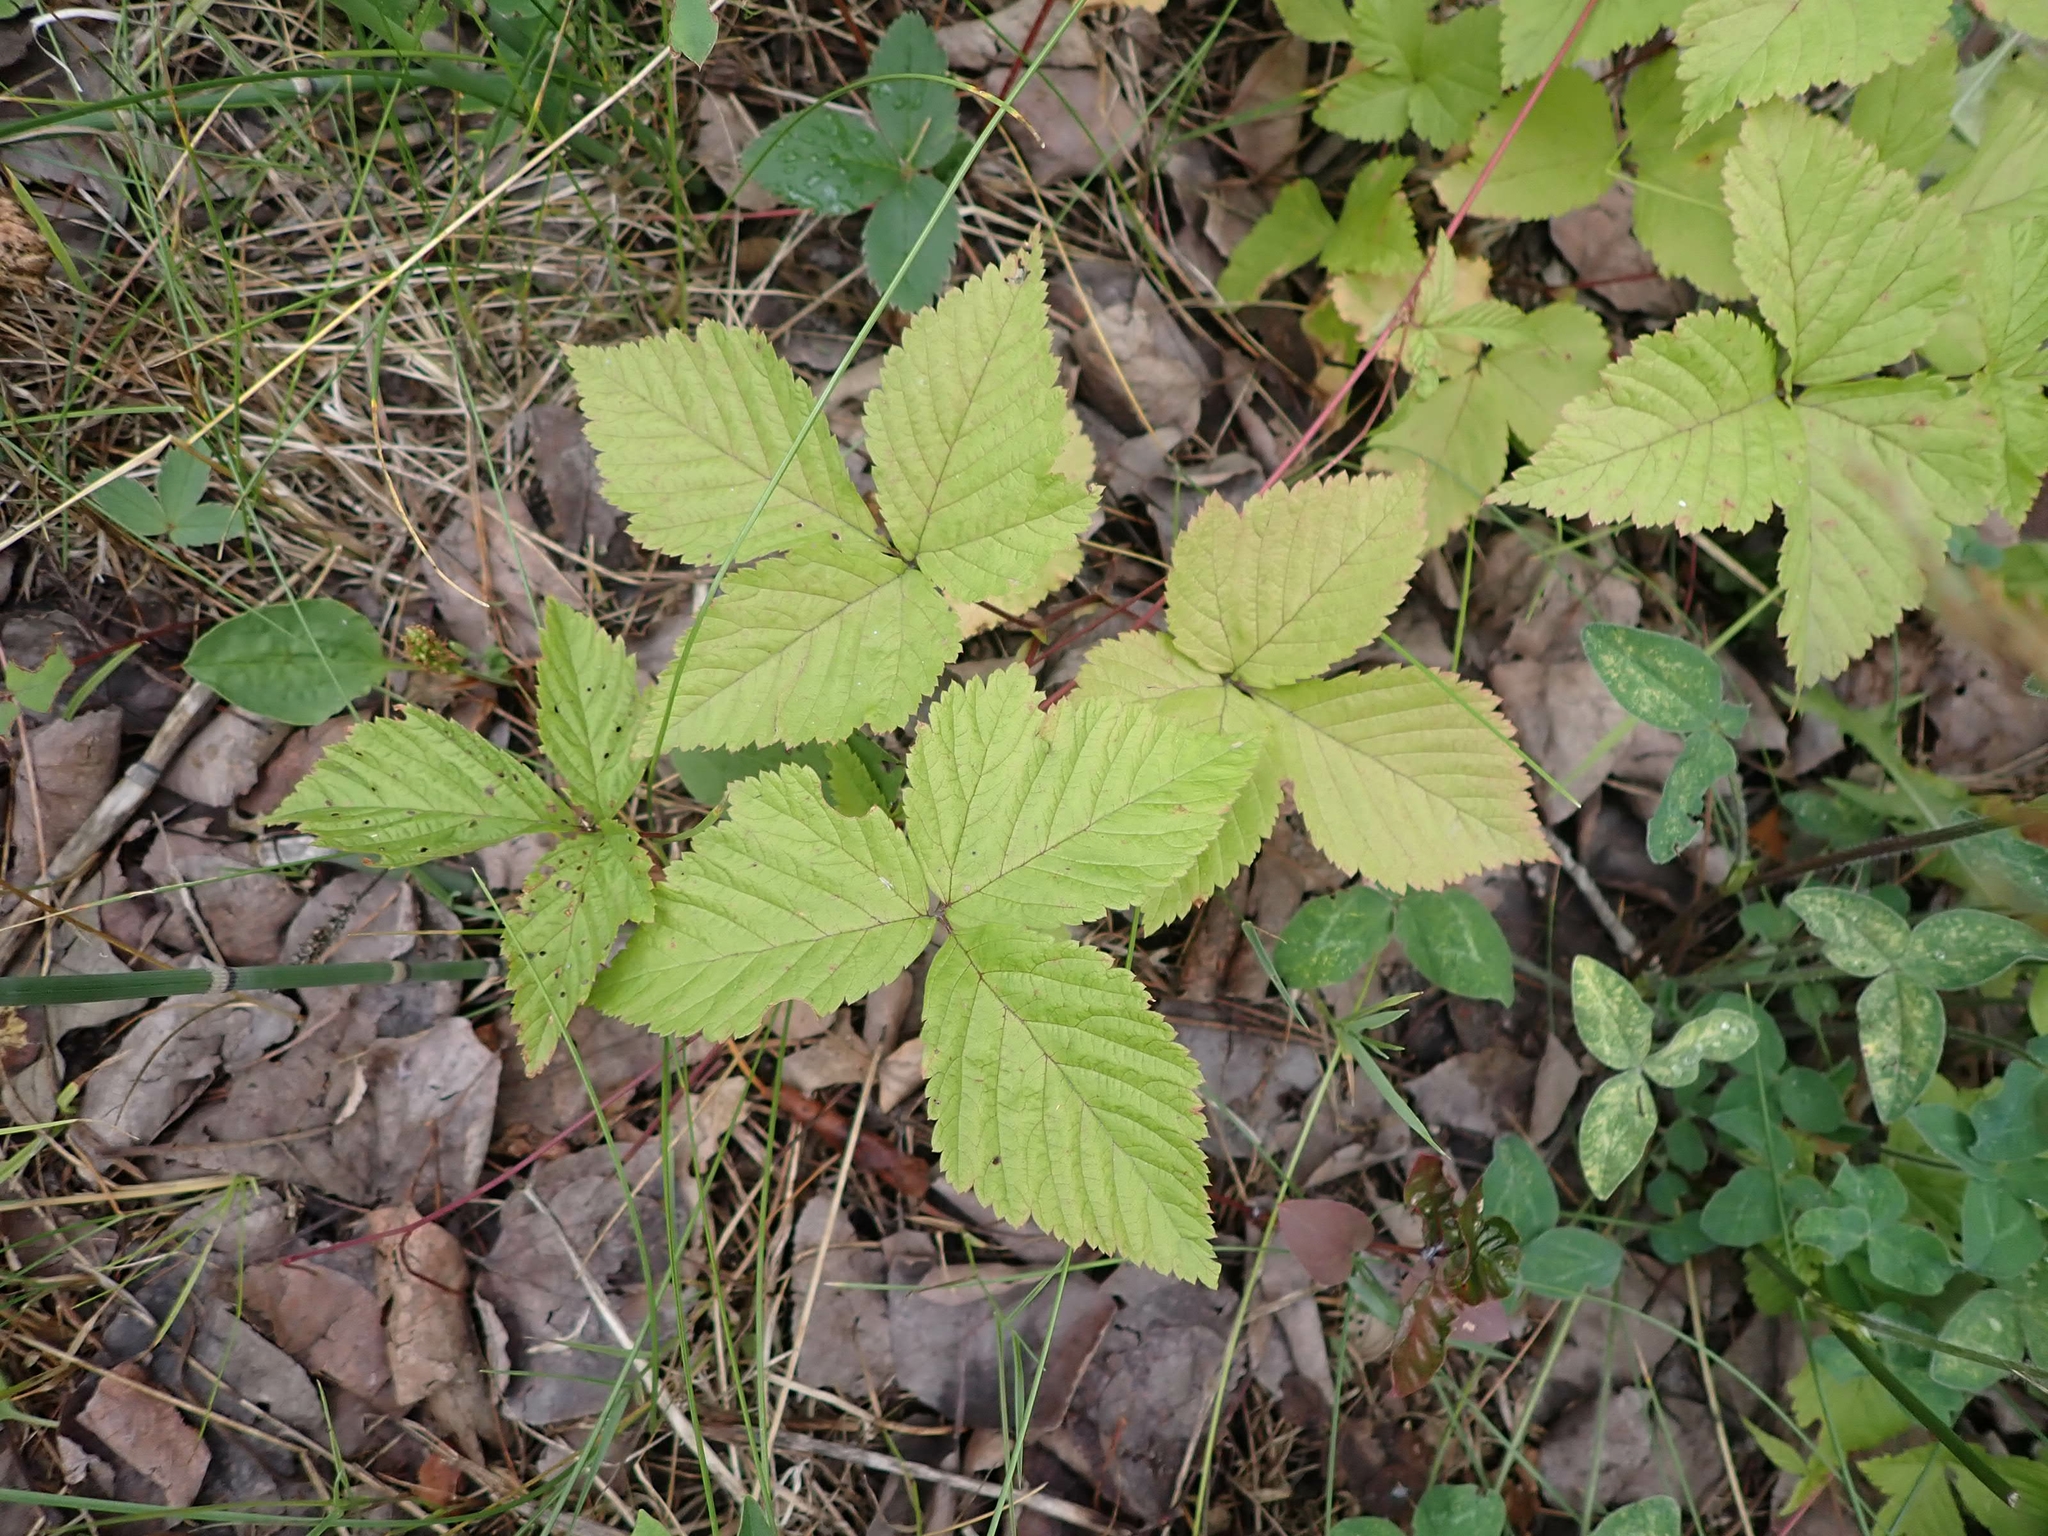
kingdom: Plantae
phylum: Tracheophyta
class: Magnoliopsida
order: Rosales
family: Rosaceae
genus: Rubus
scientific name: Rubus pubescens
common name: Dwarf raspberry
